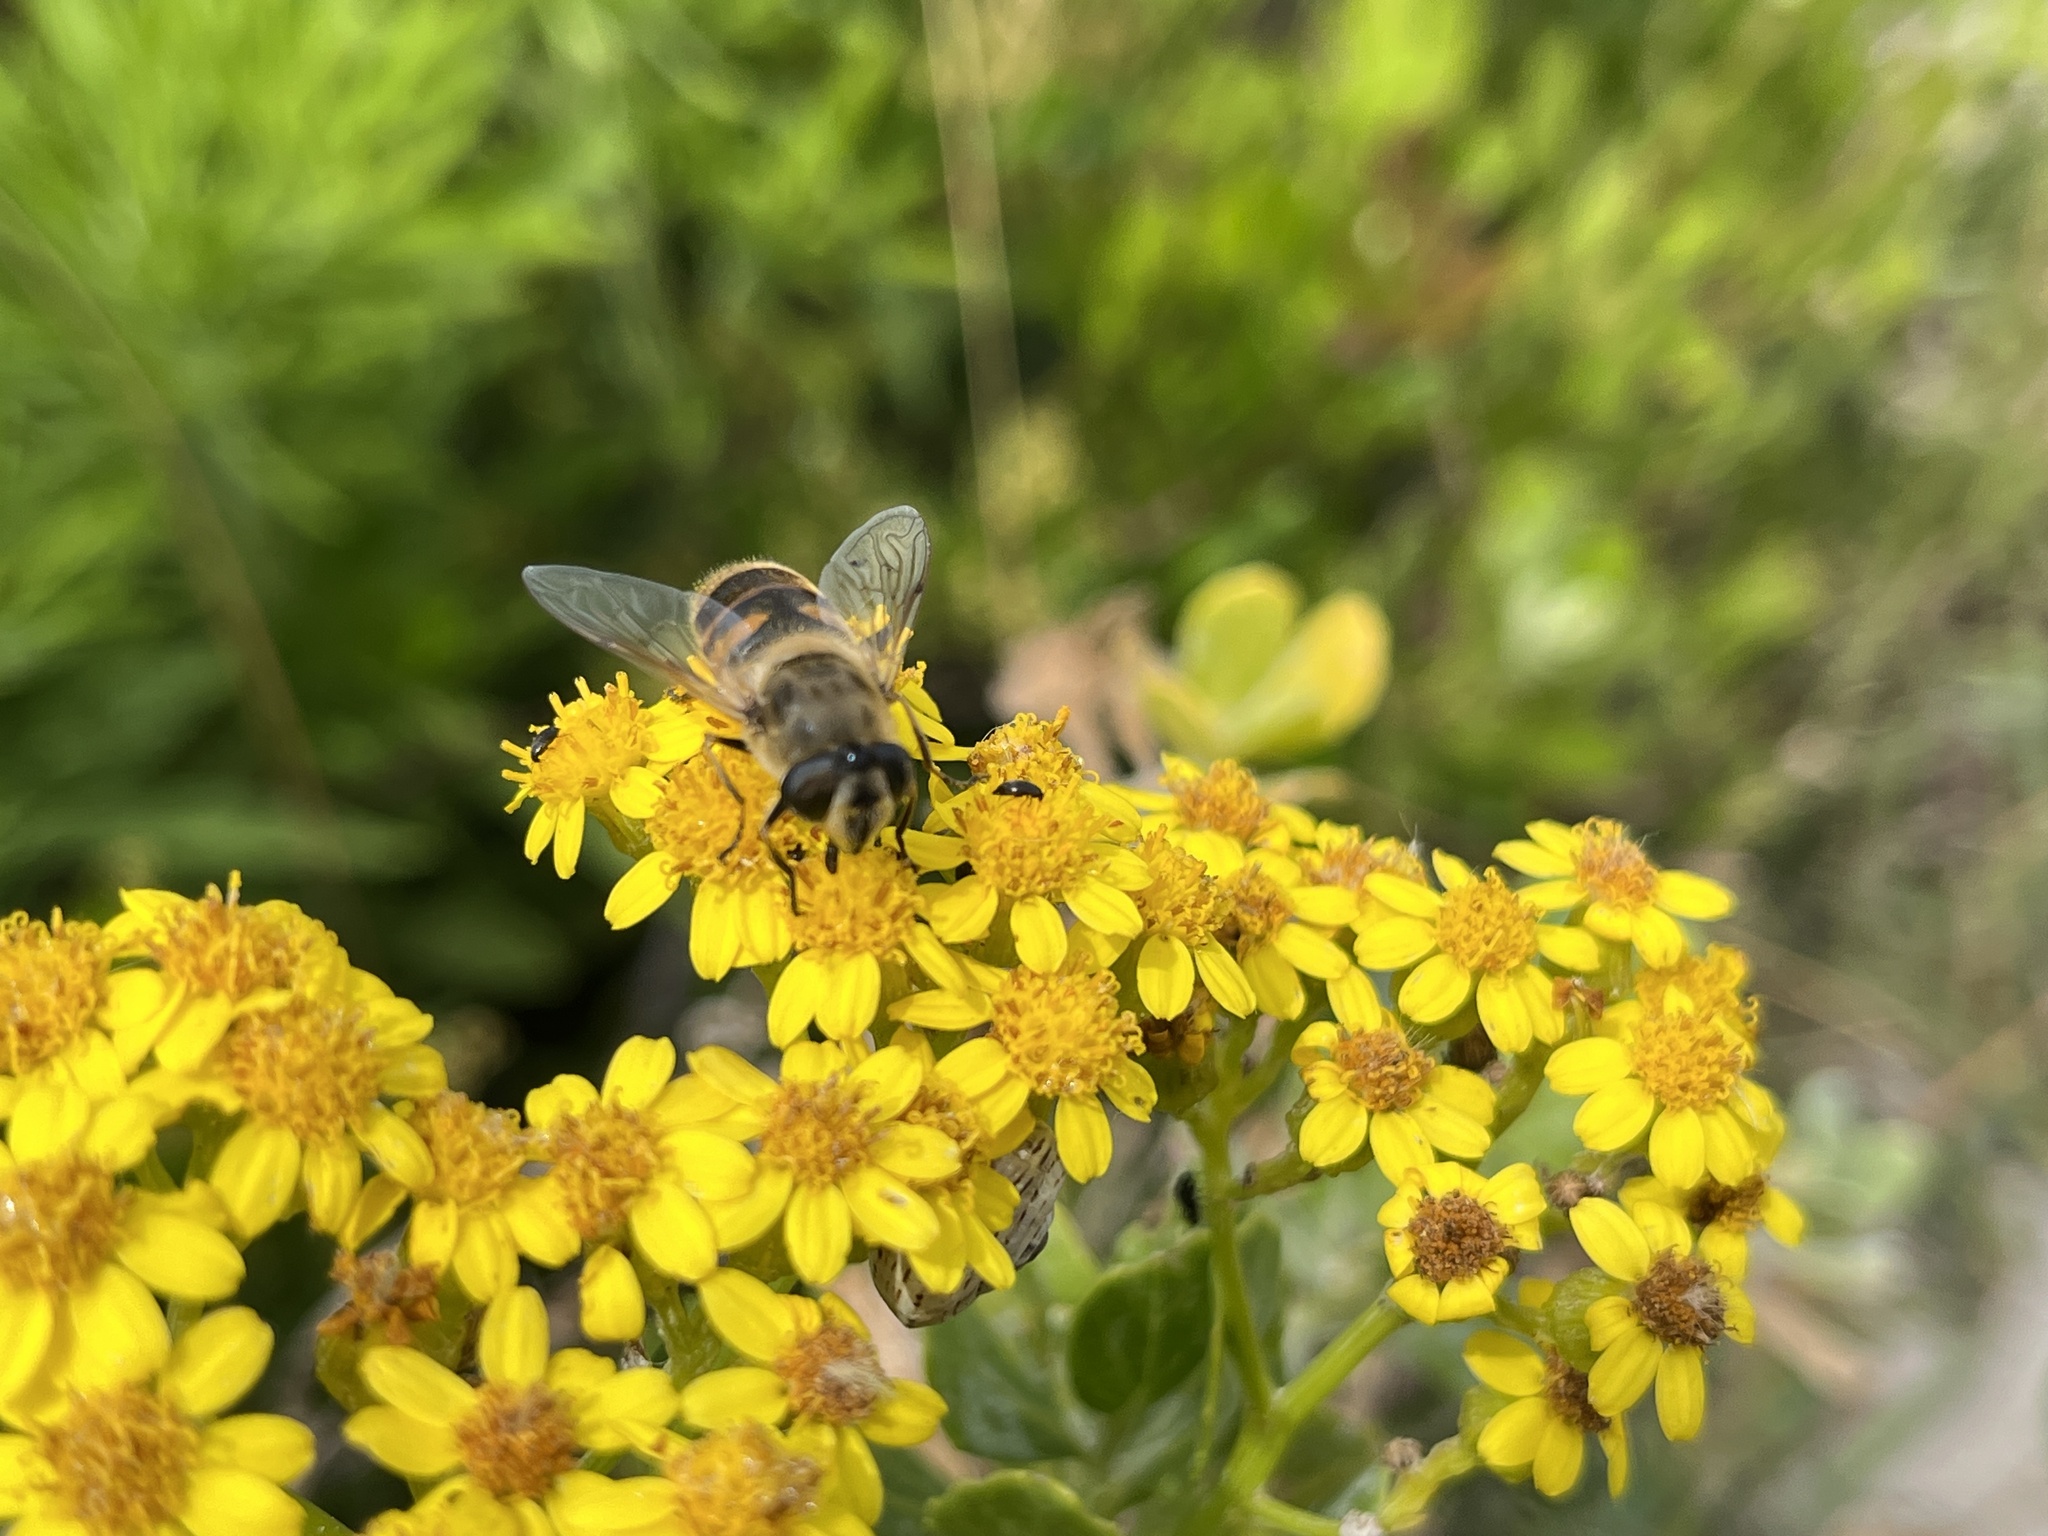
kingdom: Animalia
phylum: Arthropoda
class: Insecta
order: Diptera
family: Syrphidae
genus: Eristalis
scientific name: Eristalis tenax
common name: Drone fly
